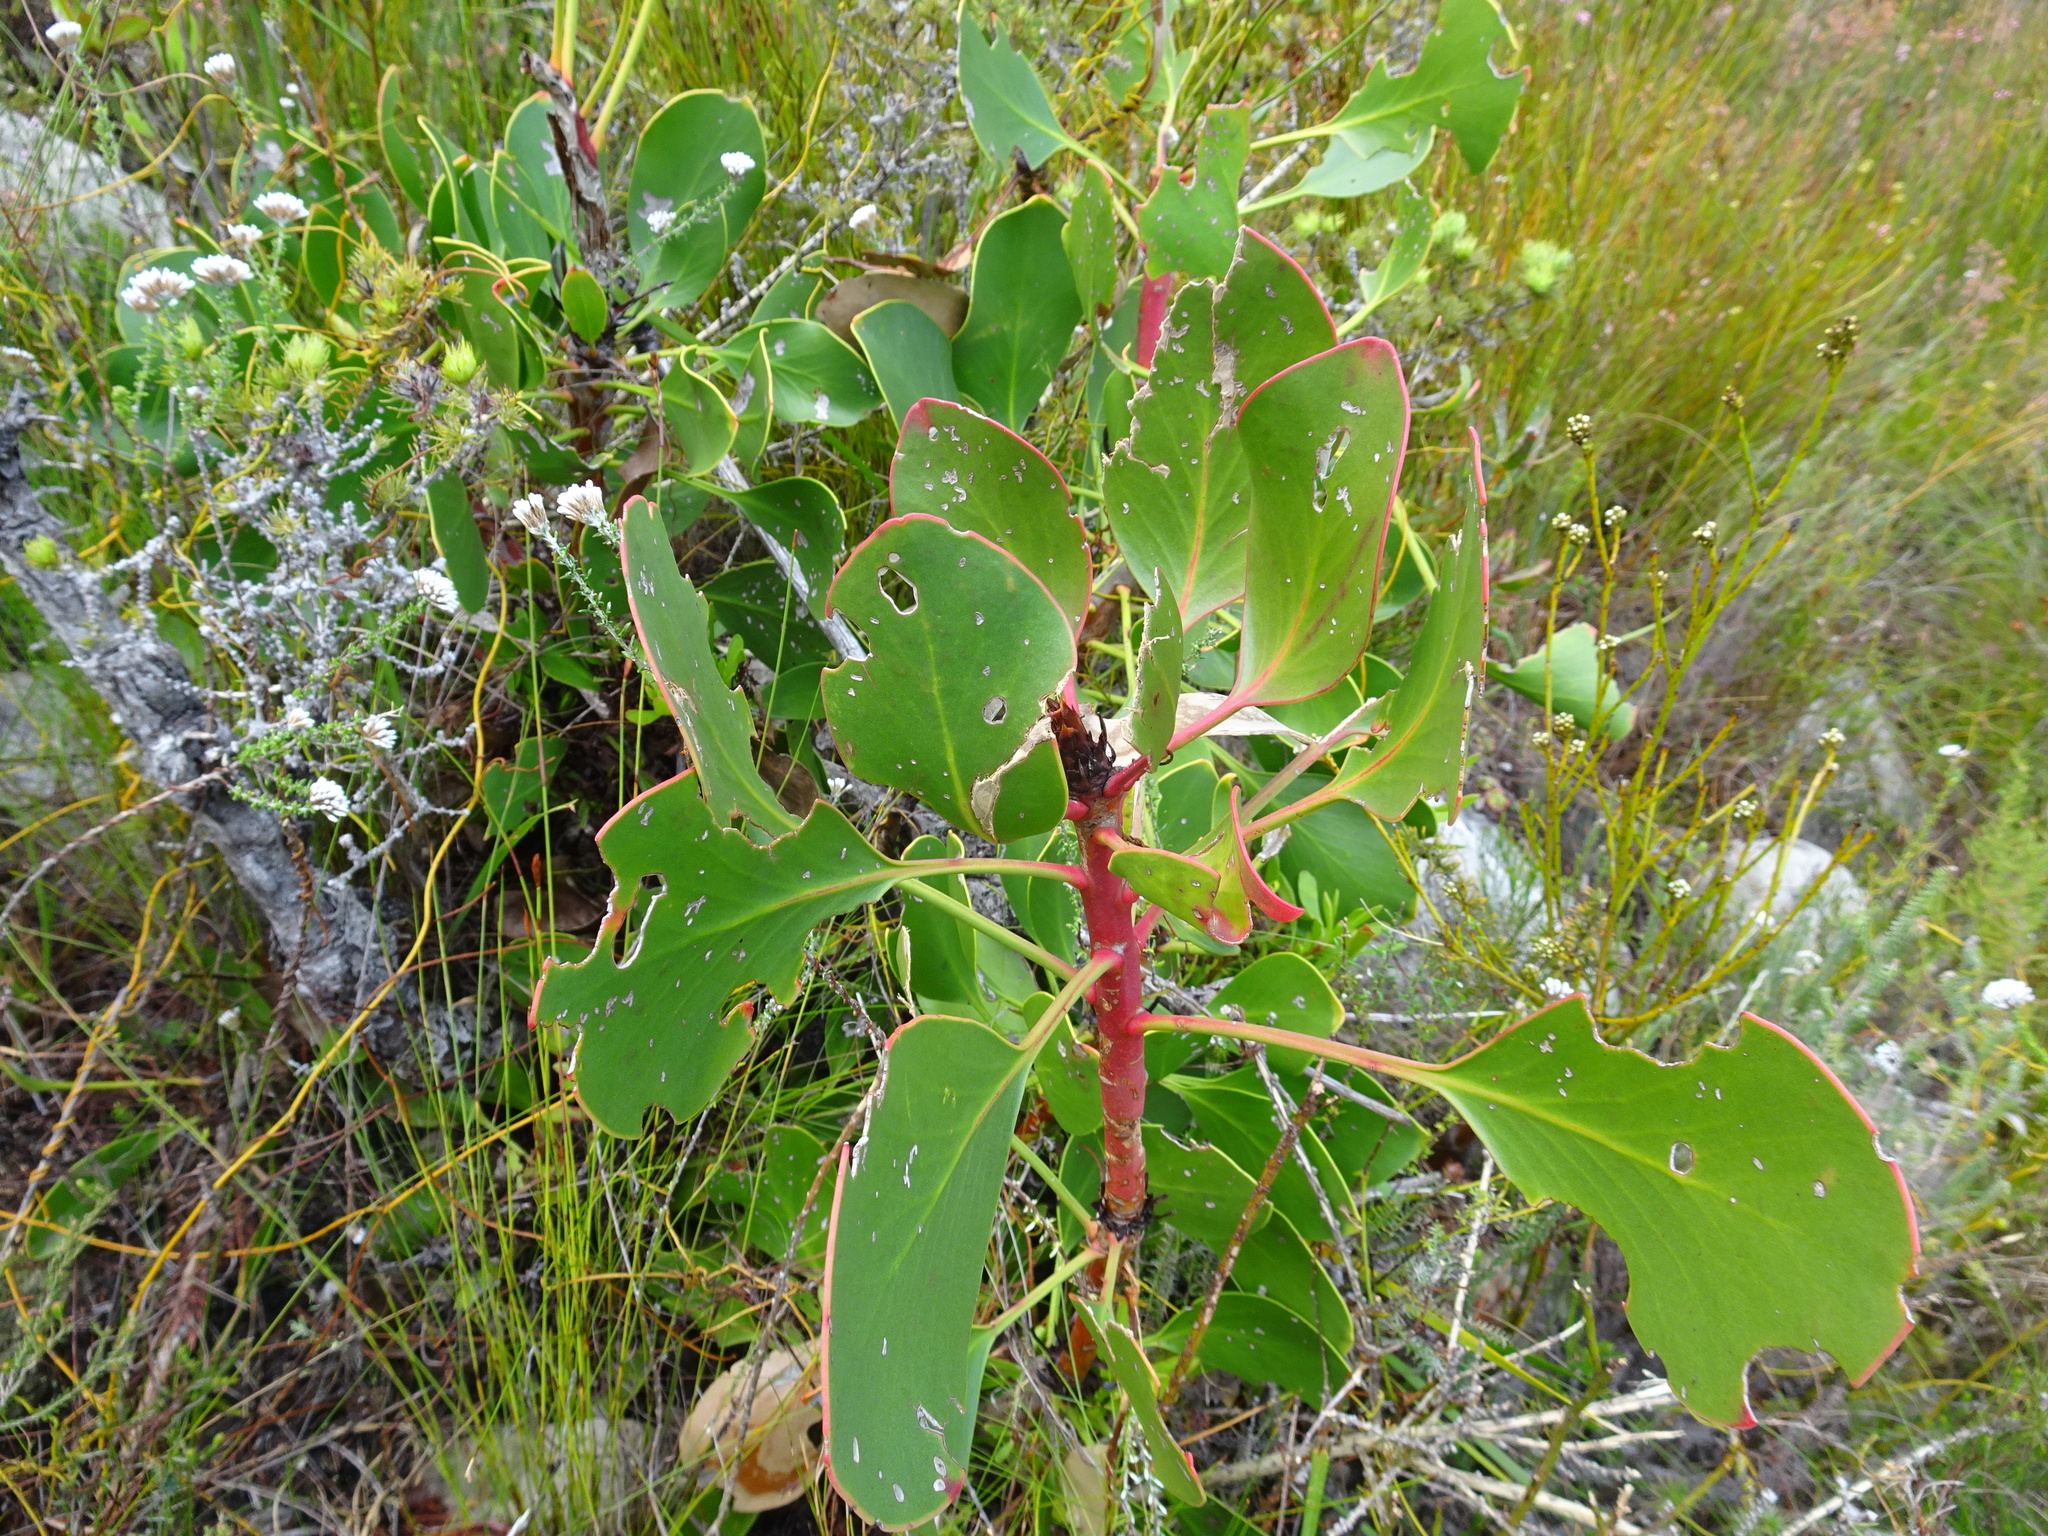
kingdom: Plantae
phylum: Tracheophyta
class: Magnoliopsida
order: Proteales
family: Proteaceae
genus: Protea
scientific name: Protea cynaroides
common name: King protea
